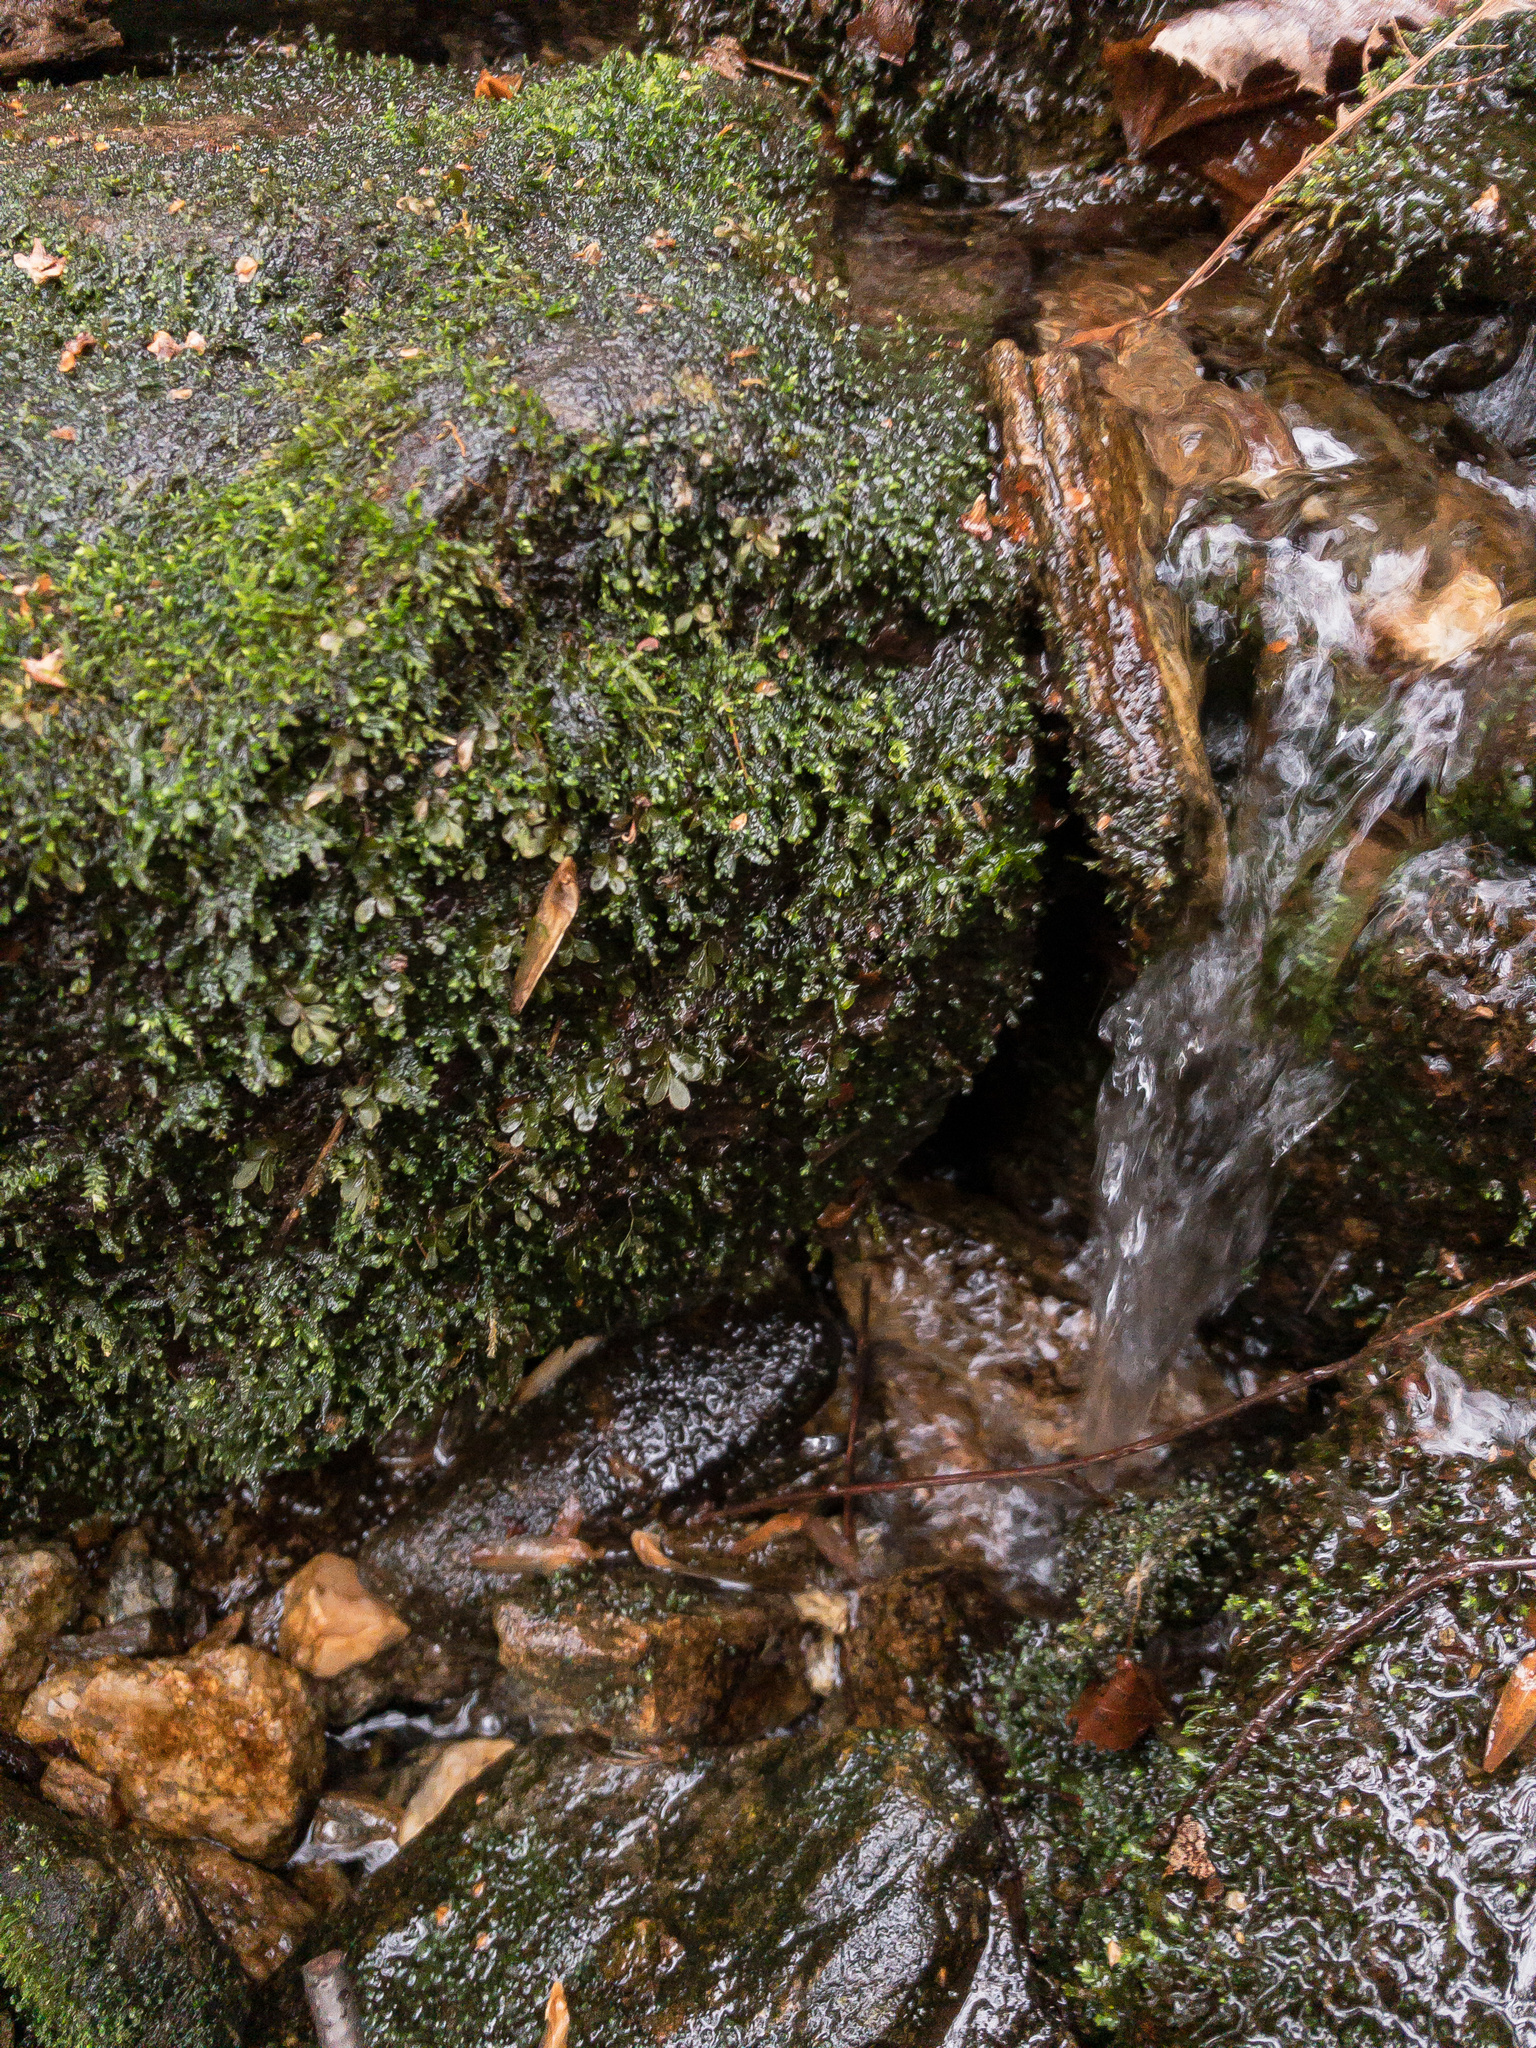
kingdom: Plantae
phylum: Bryophyta
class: Bryopsida
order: Bryales
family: Mniaceae
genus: Rhizomnium
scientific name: Rhizomnium punctatum
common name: Dotted leafy moss
